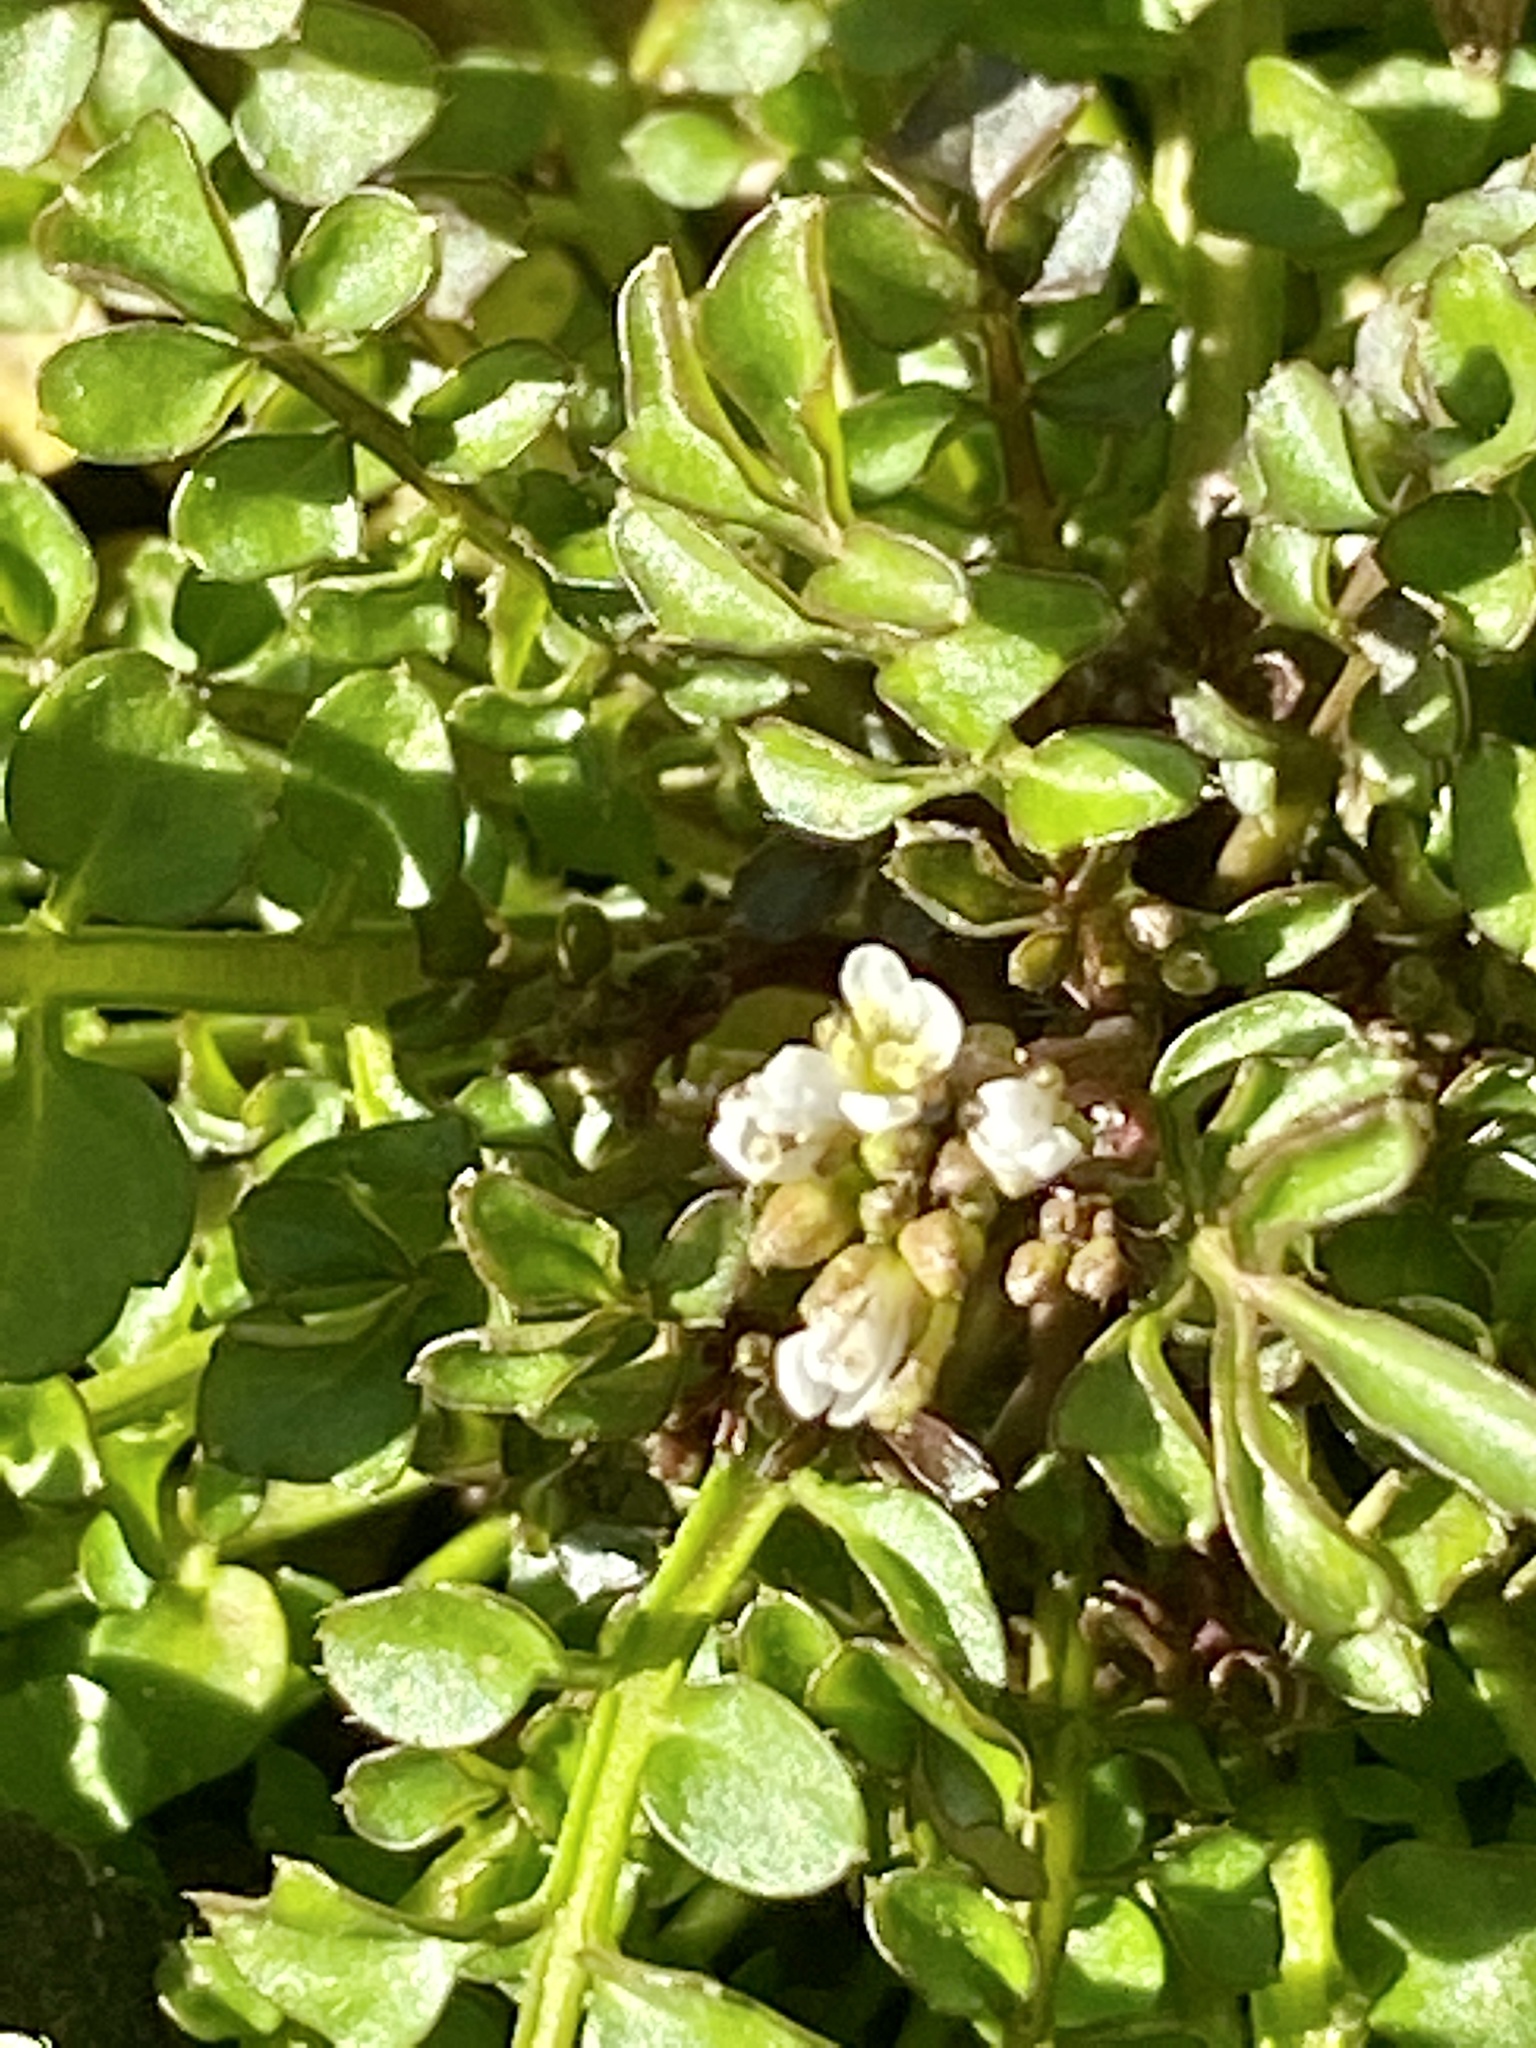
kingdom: Plantae
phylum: Tracheophyta
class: Magnoliopsida
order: Brassicales
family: Brassicaceae
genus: Cardamine
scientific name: Cardamine hirsuta
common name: Hairy bittercress
